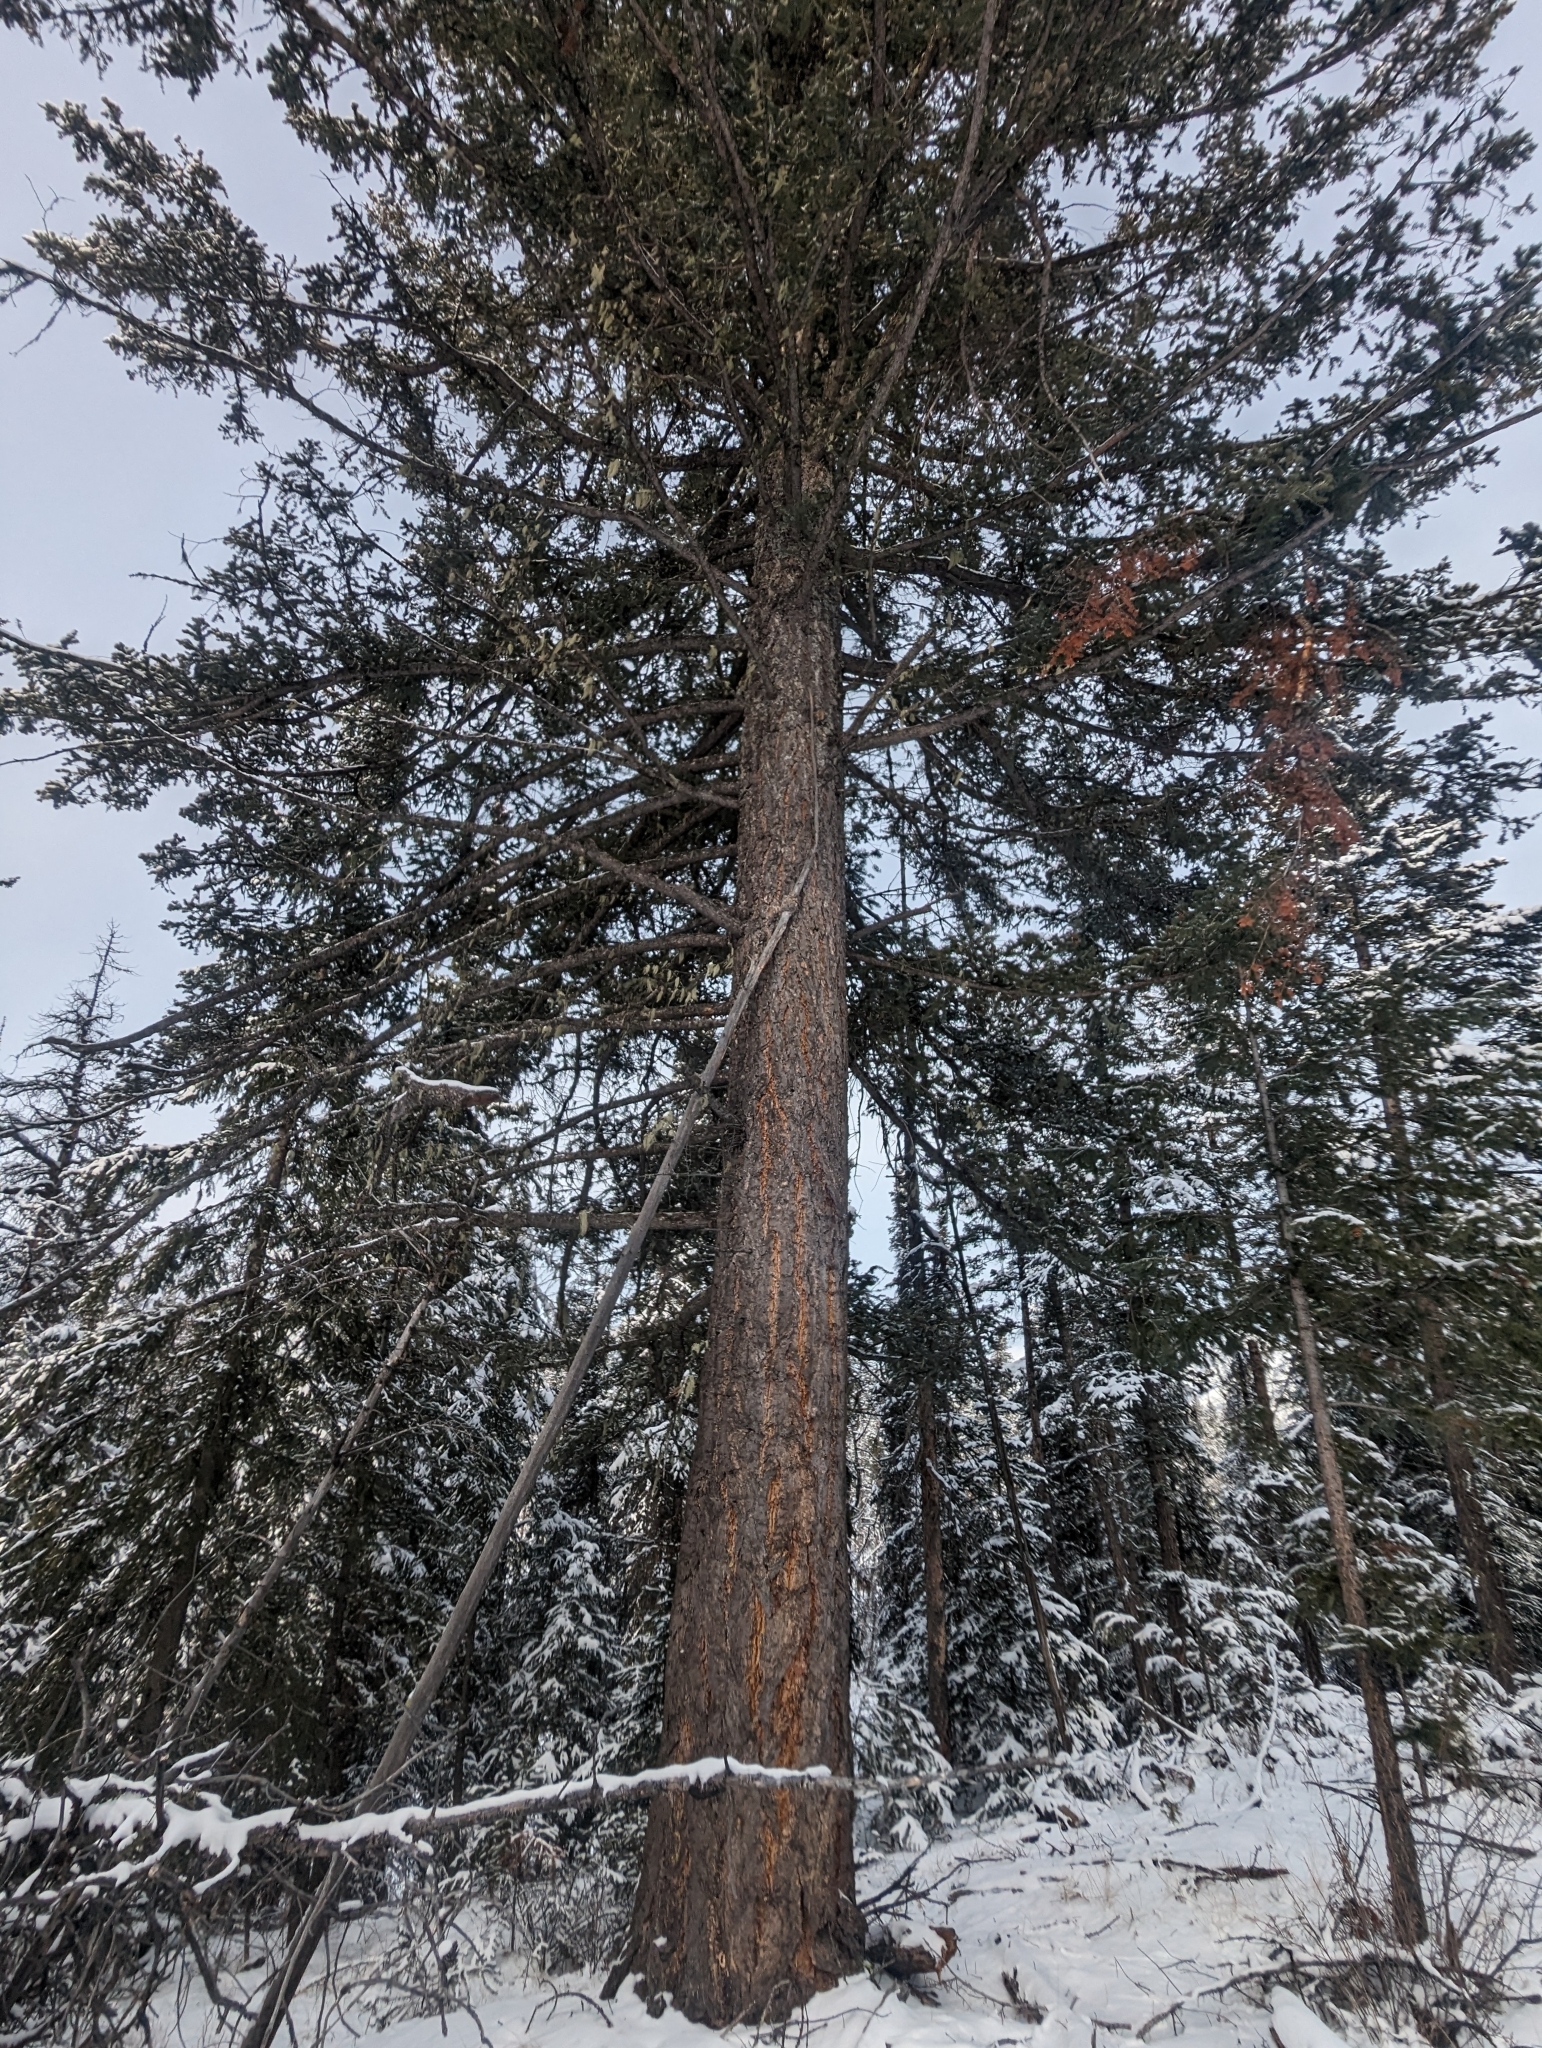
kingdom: Plantae
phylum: Tracheophyta
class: Pinopsida
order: Pinales
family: Pinaceae
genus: Pseudotsuga
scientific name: Pseudotsuga menziesii
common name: Douglas fir
